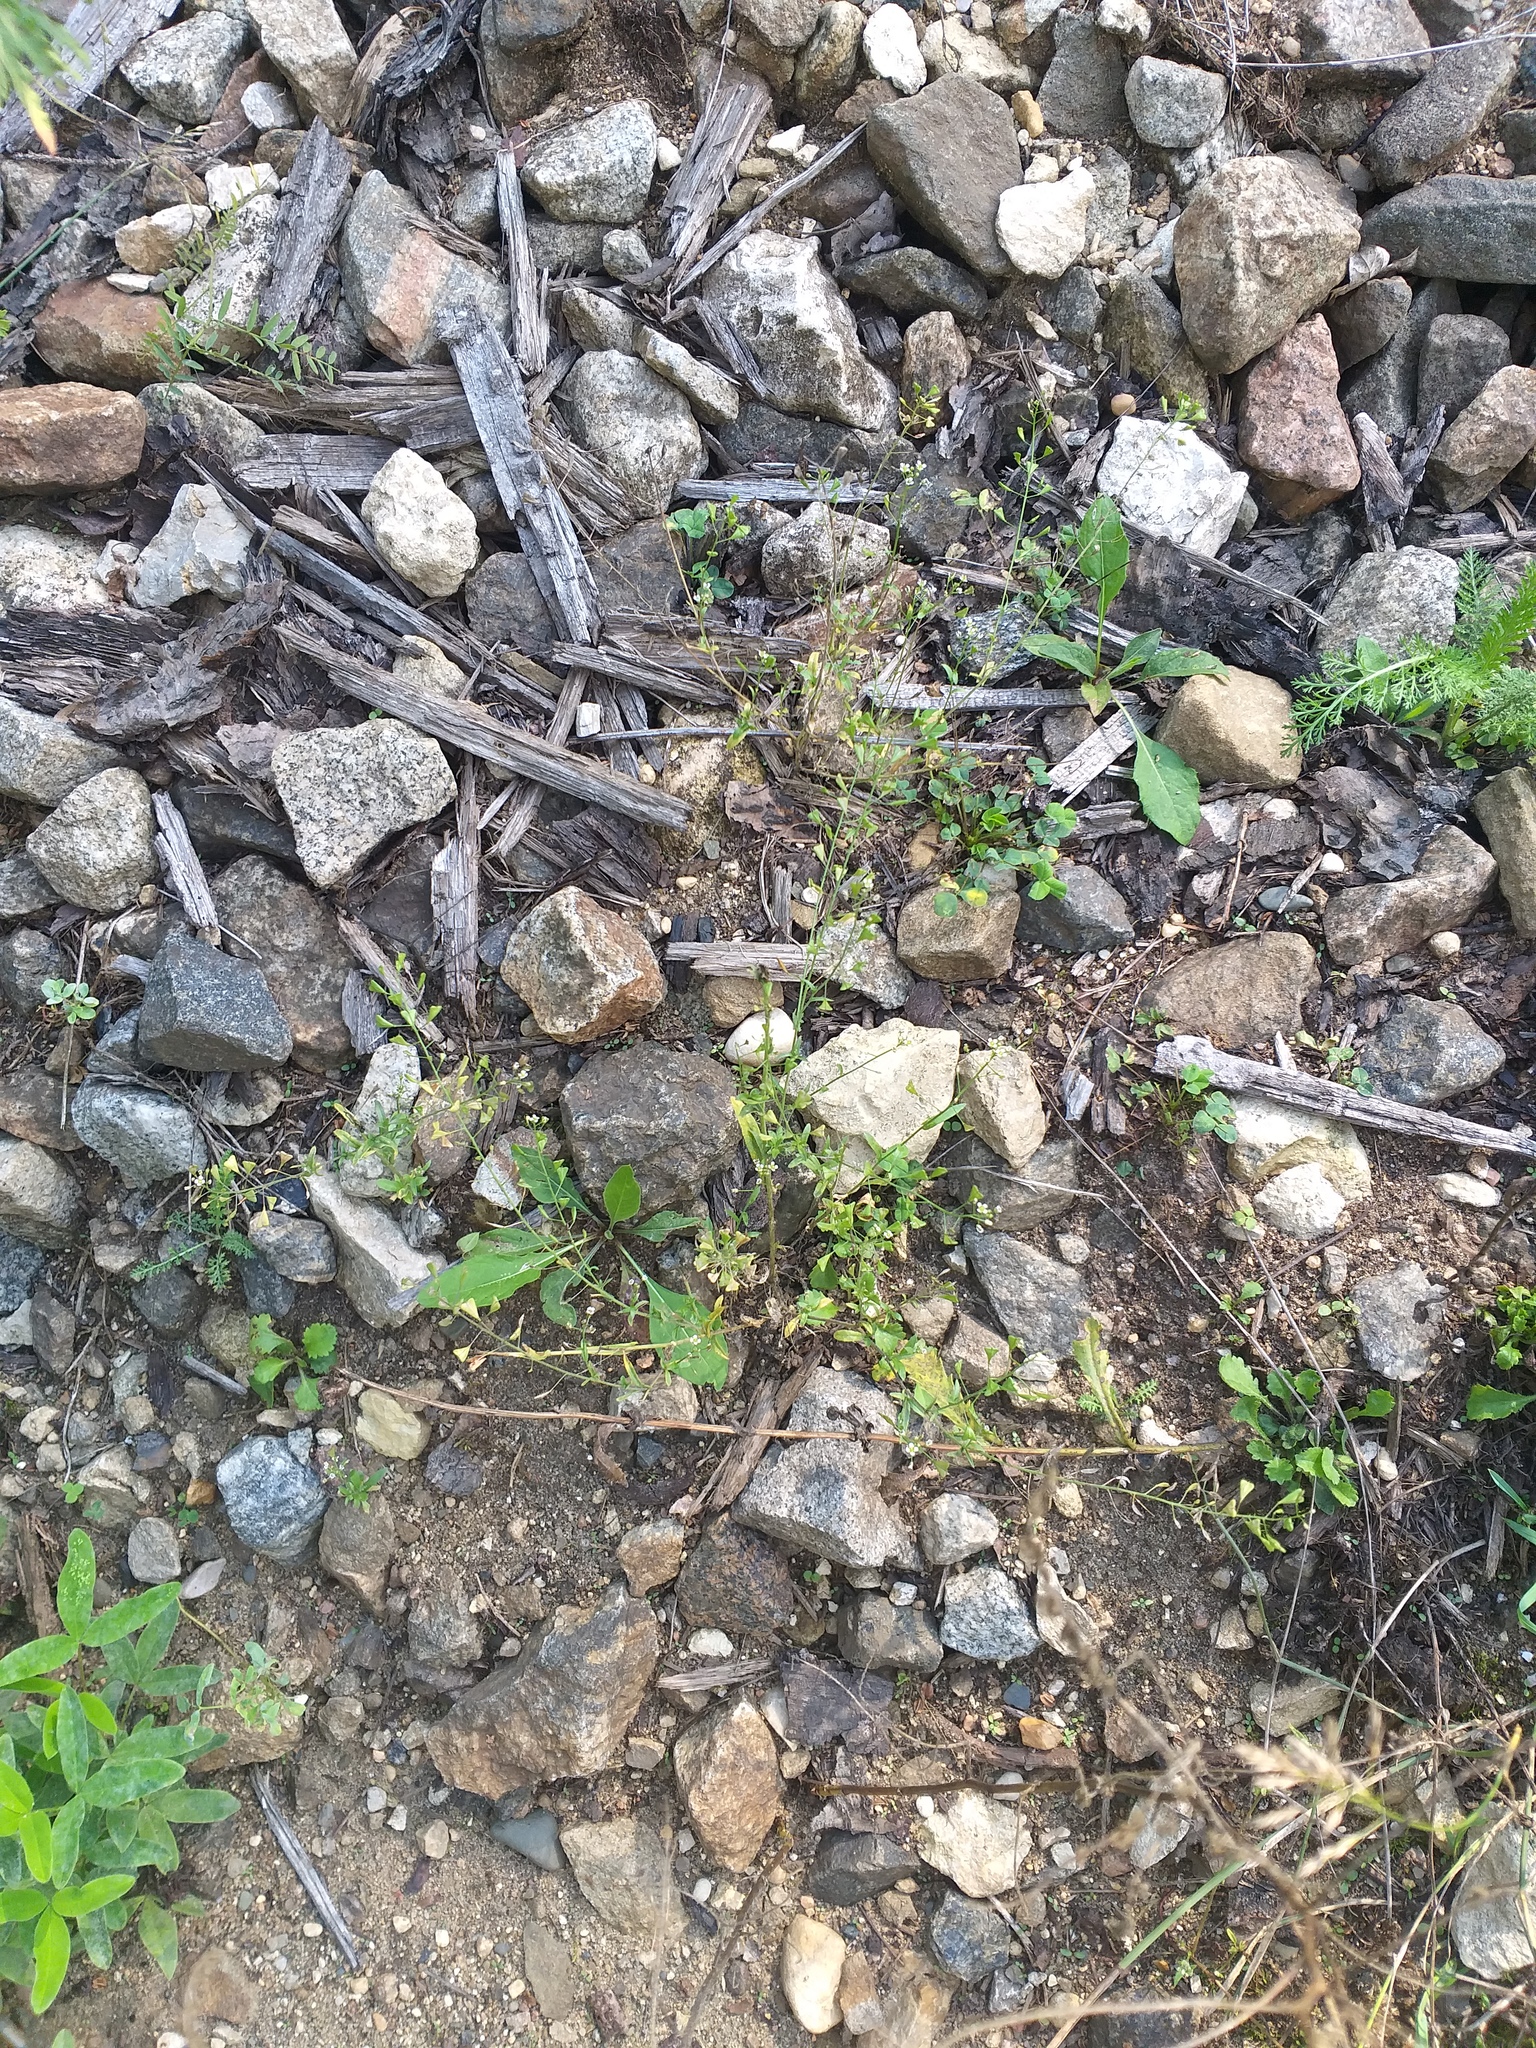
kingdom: Plantae
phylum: Tracheophyta
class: Magnoliopsida
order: Brassicales
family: Brassicaceae
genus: Capsella
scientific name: Capsella bursa-pastoris
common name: Shepherd's purse
